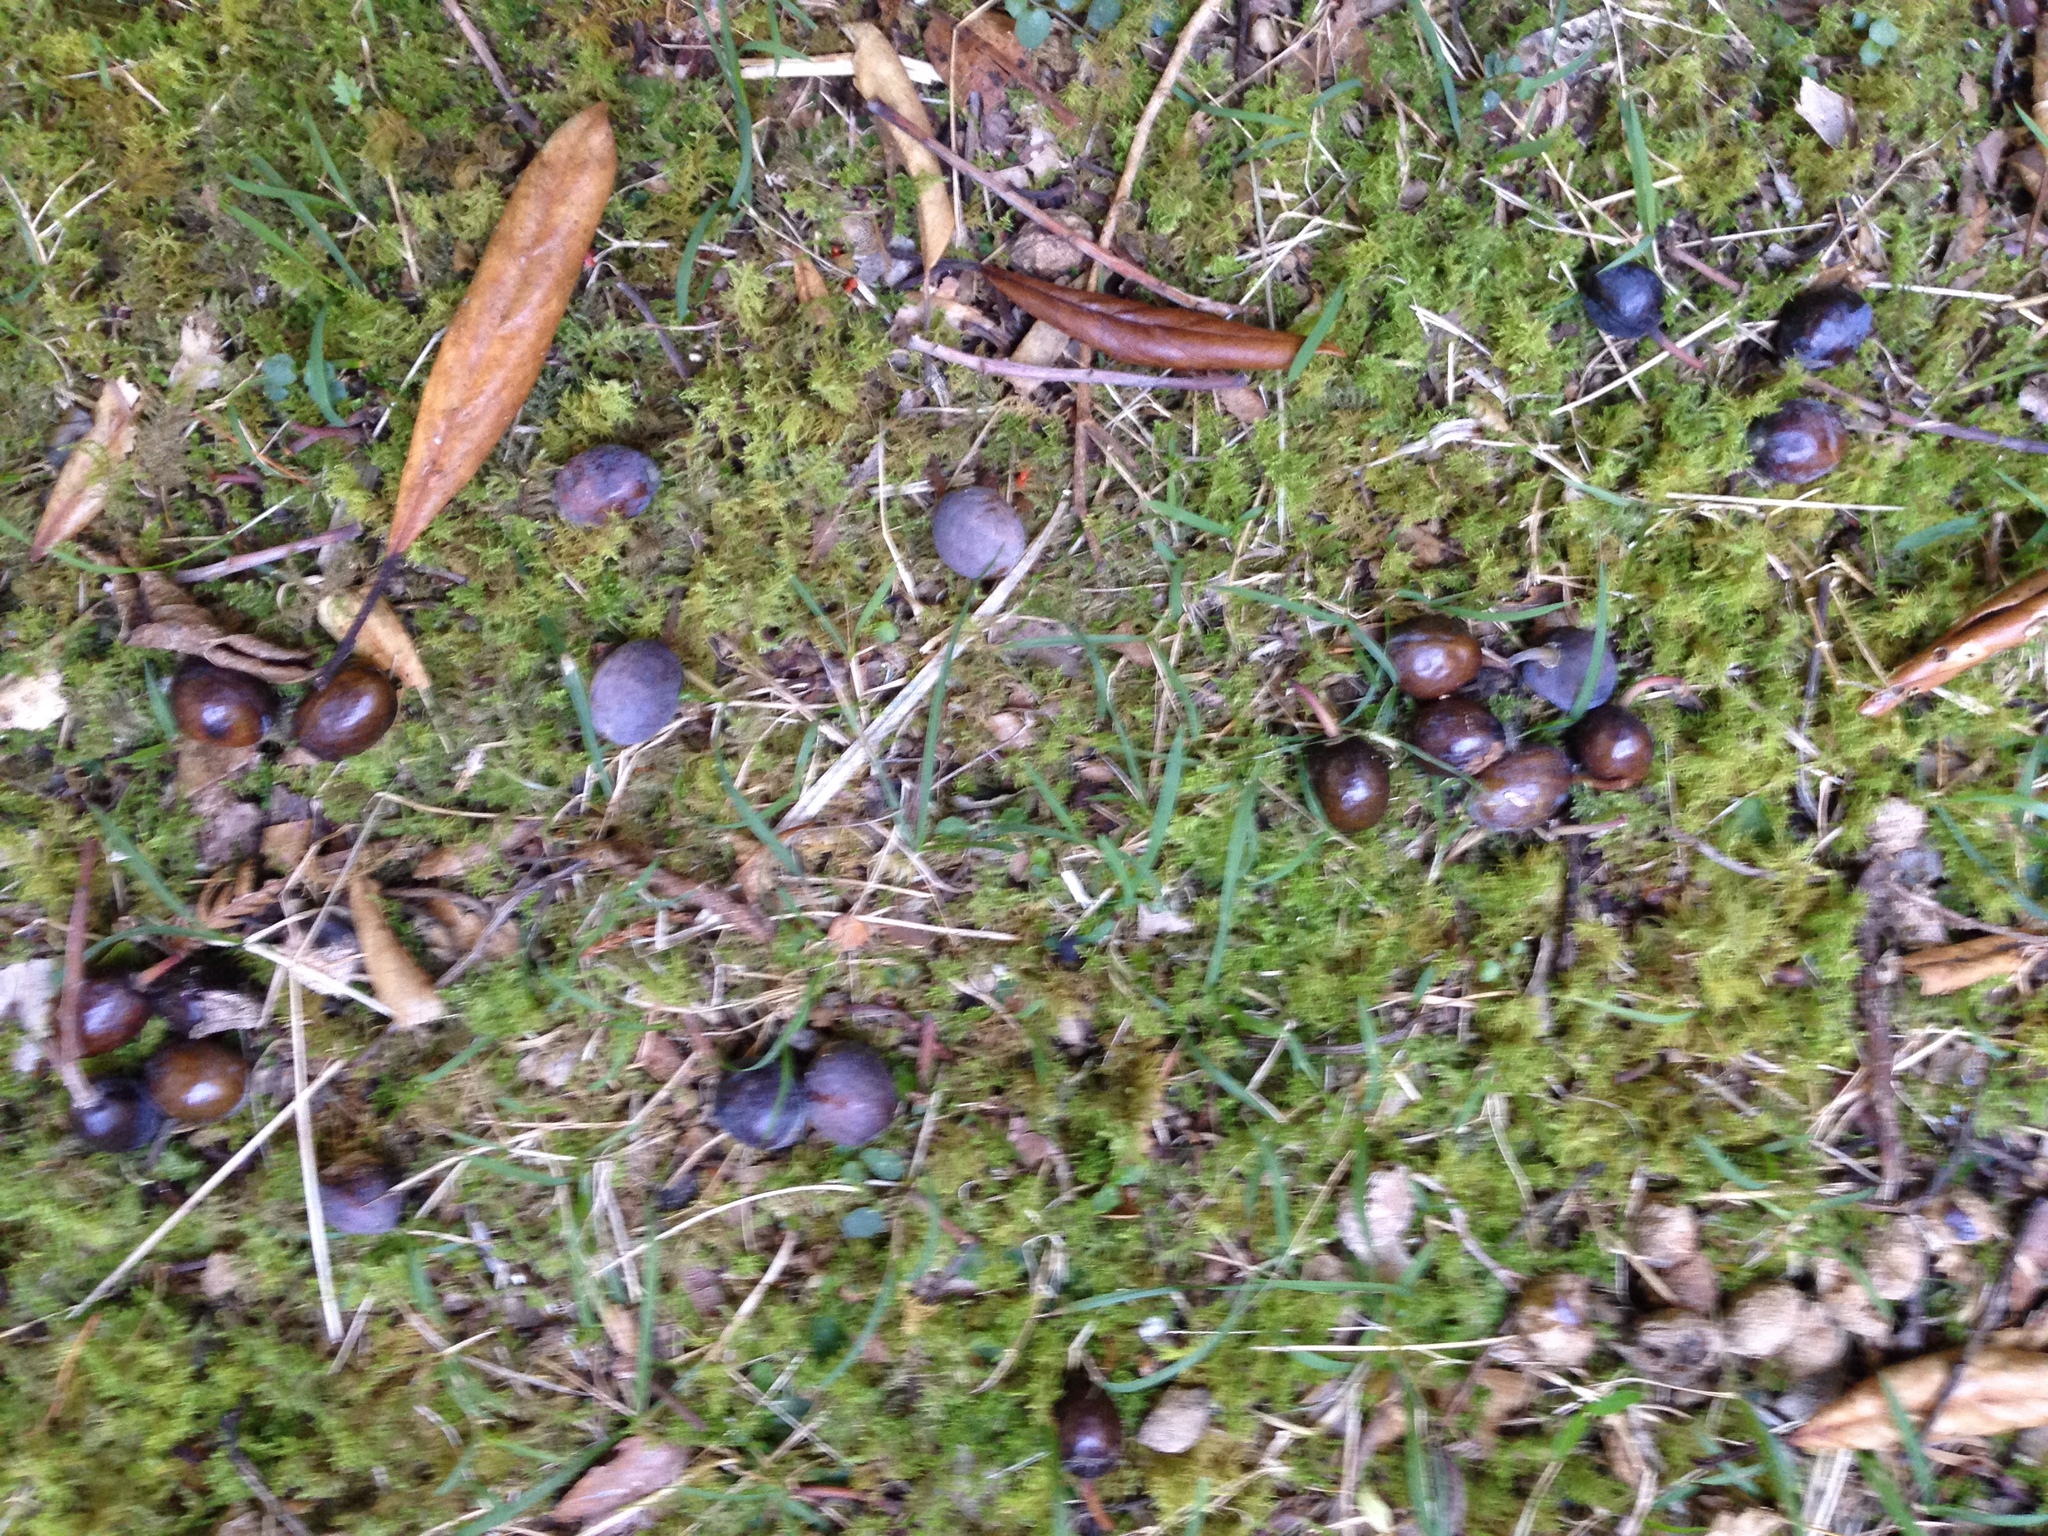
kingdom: Plantae
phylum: Tracheophyta
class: Magnoliopsida
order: Oxalidales
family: Elaeocarpaceae
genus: Elaeocarpus
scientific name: Elaeocarpus dentatus
